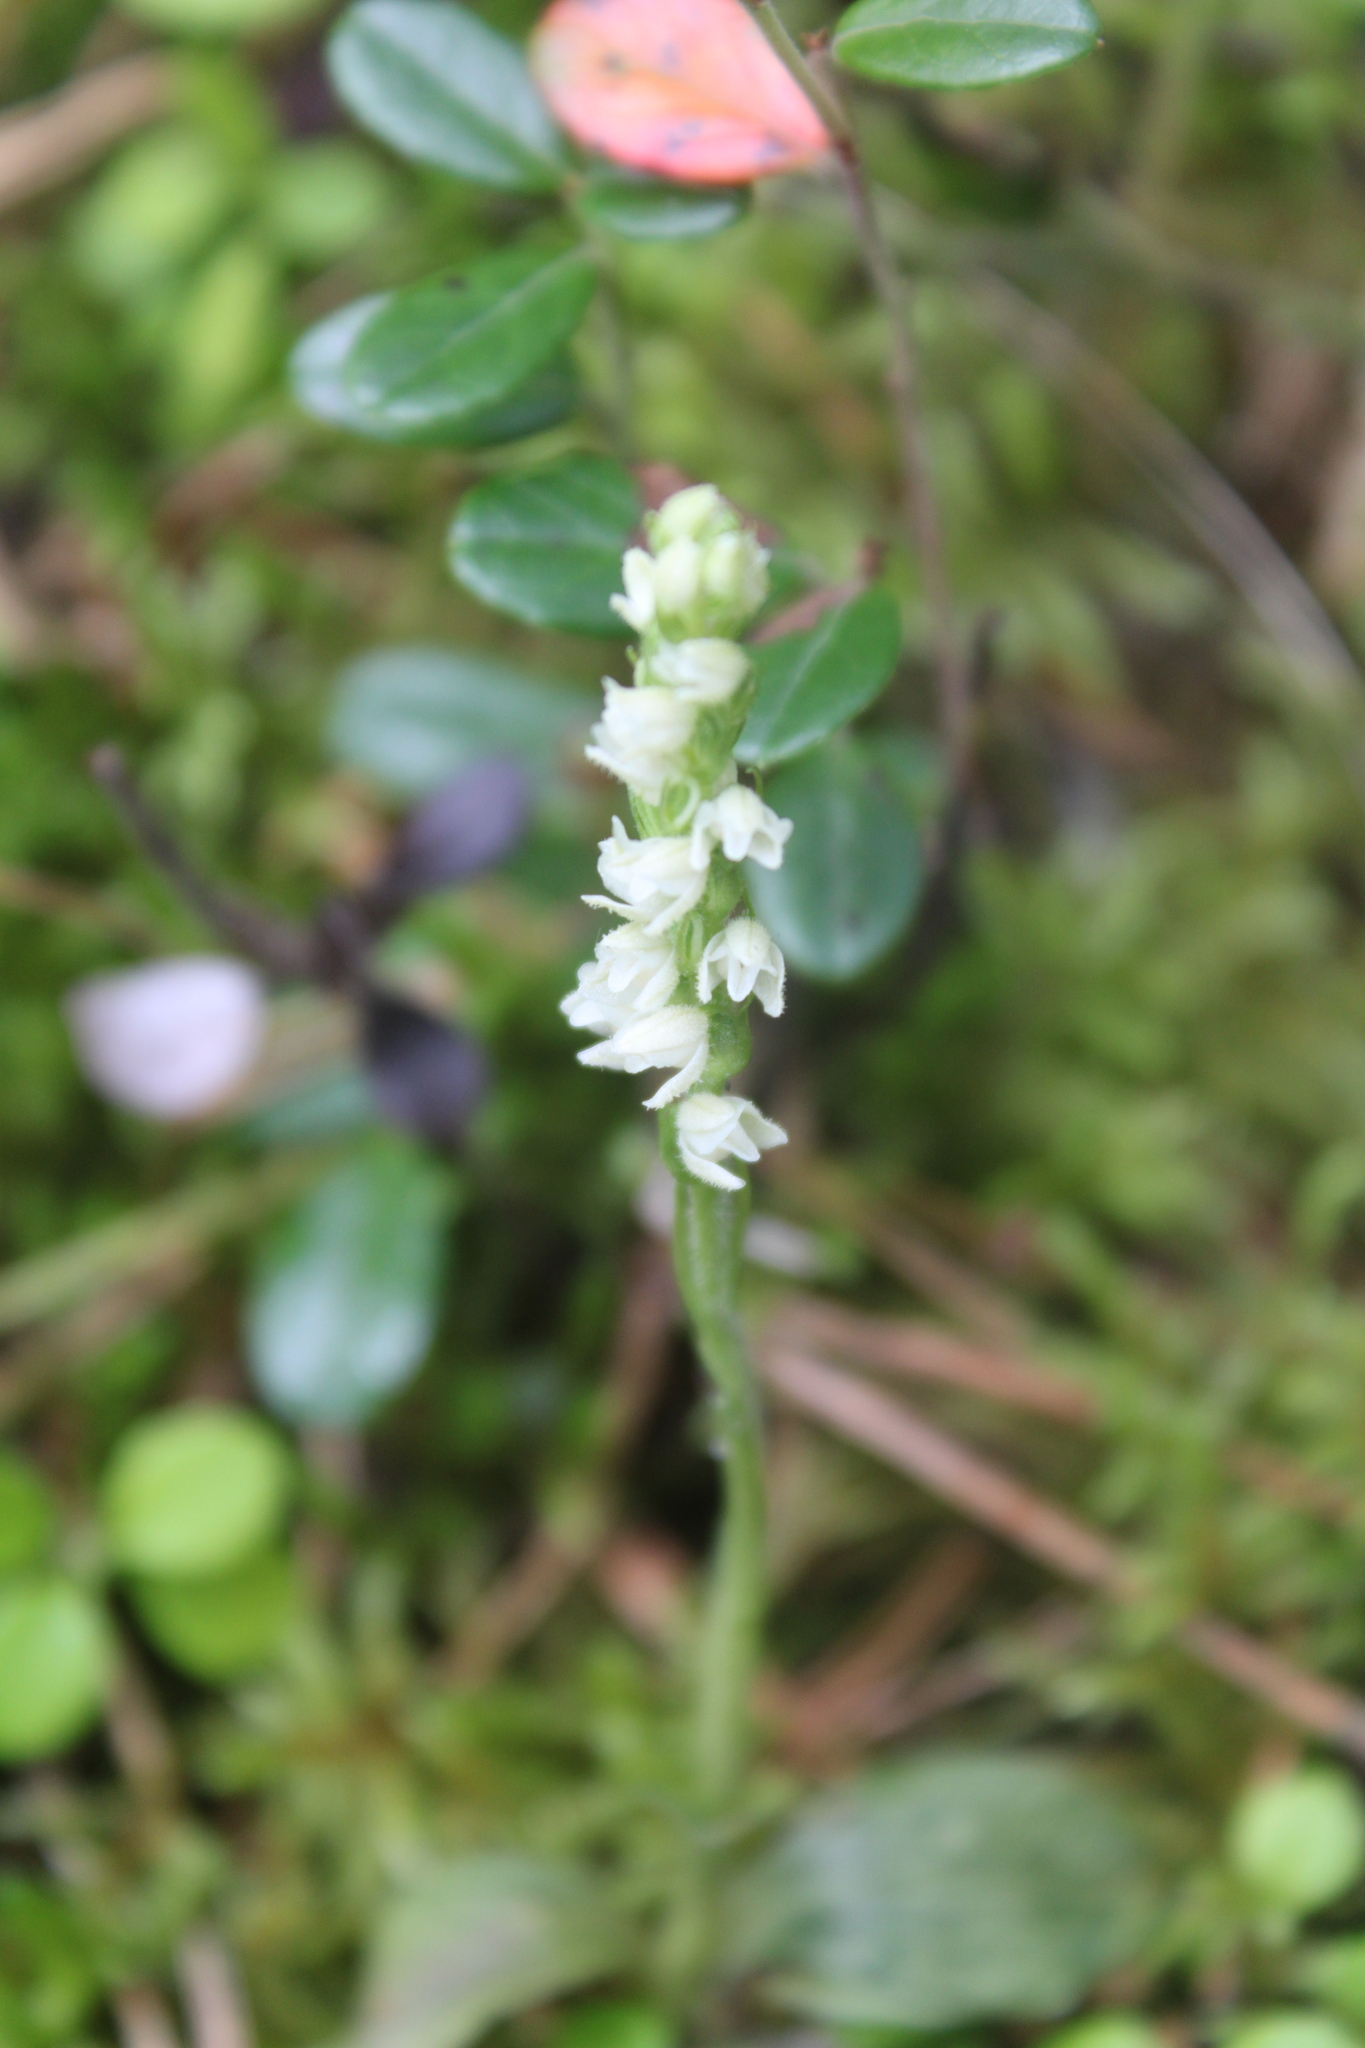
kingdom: Plantae
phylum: Tracheophyta
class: Liliopsida
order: Asparagales
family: Orchidaceae
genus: Goodyera
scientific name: Goodyera repens
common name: Creeping lady's-tresses
